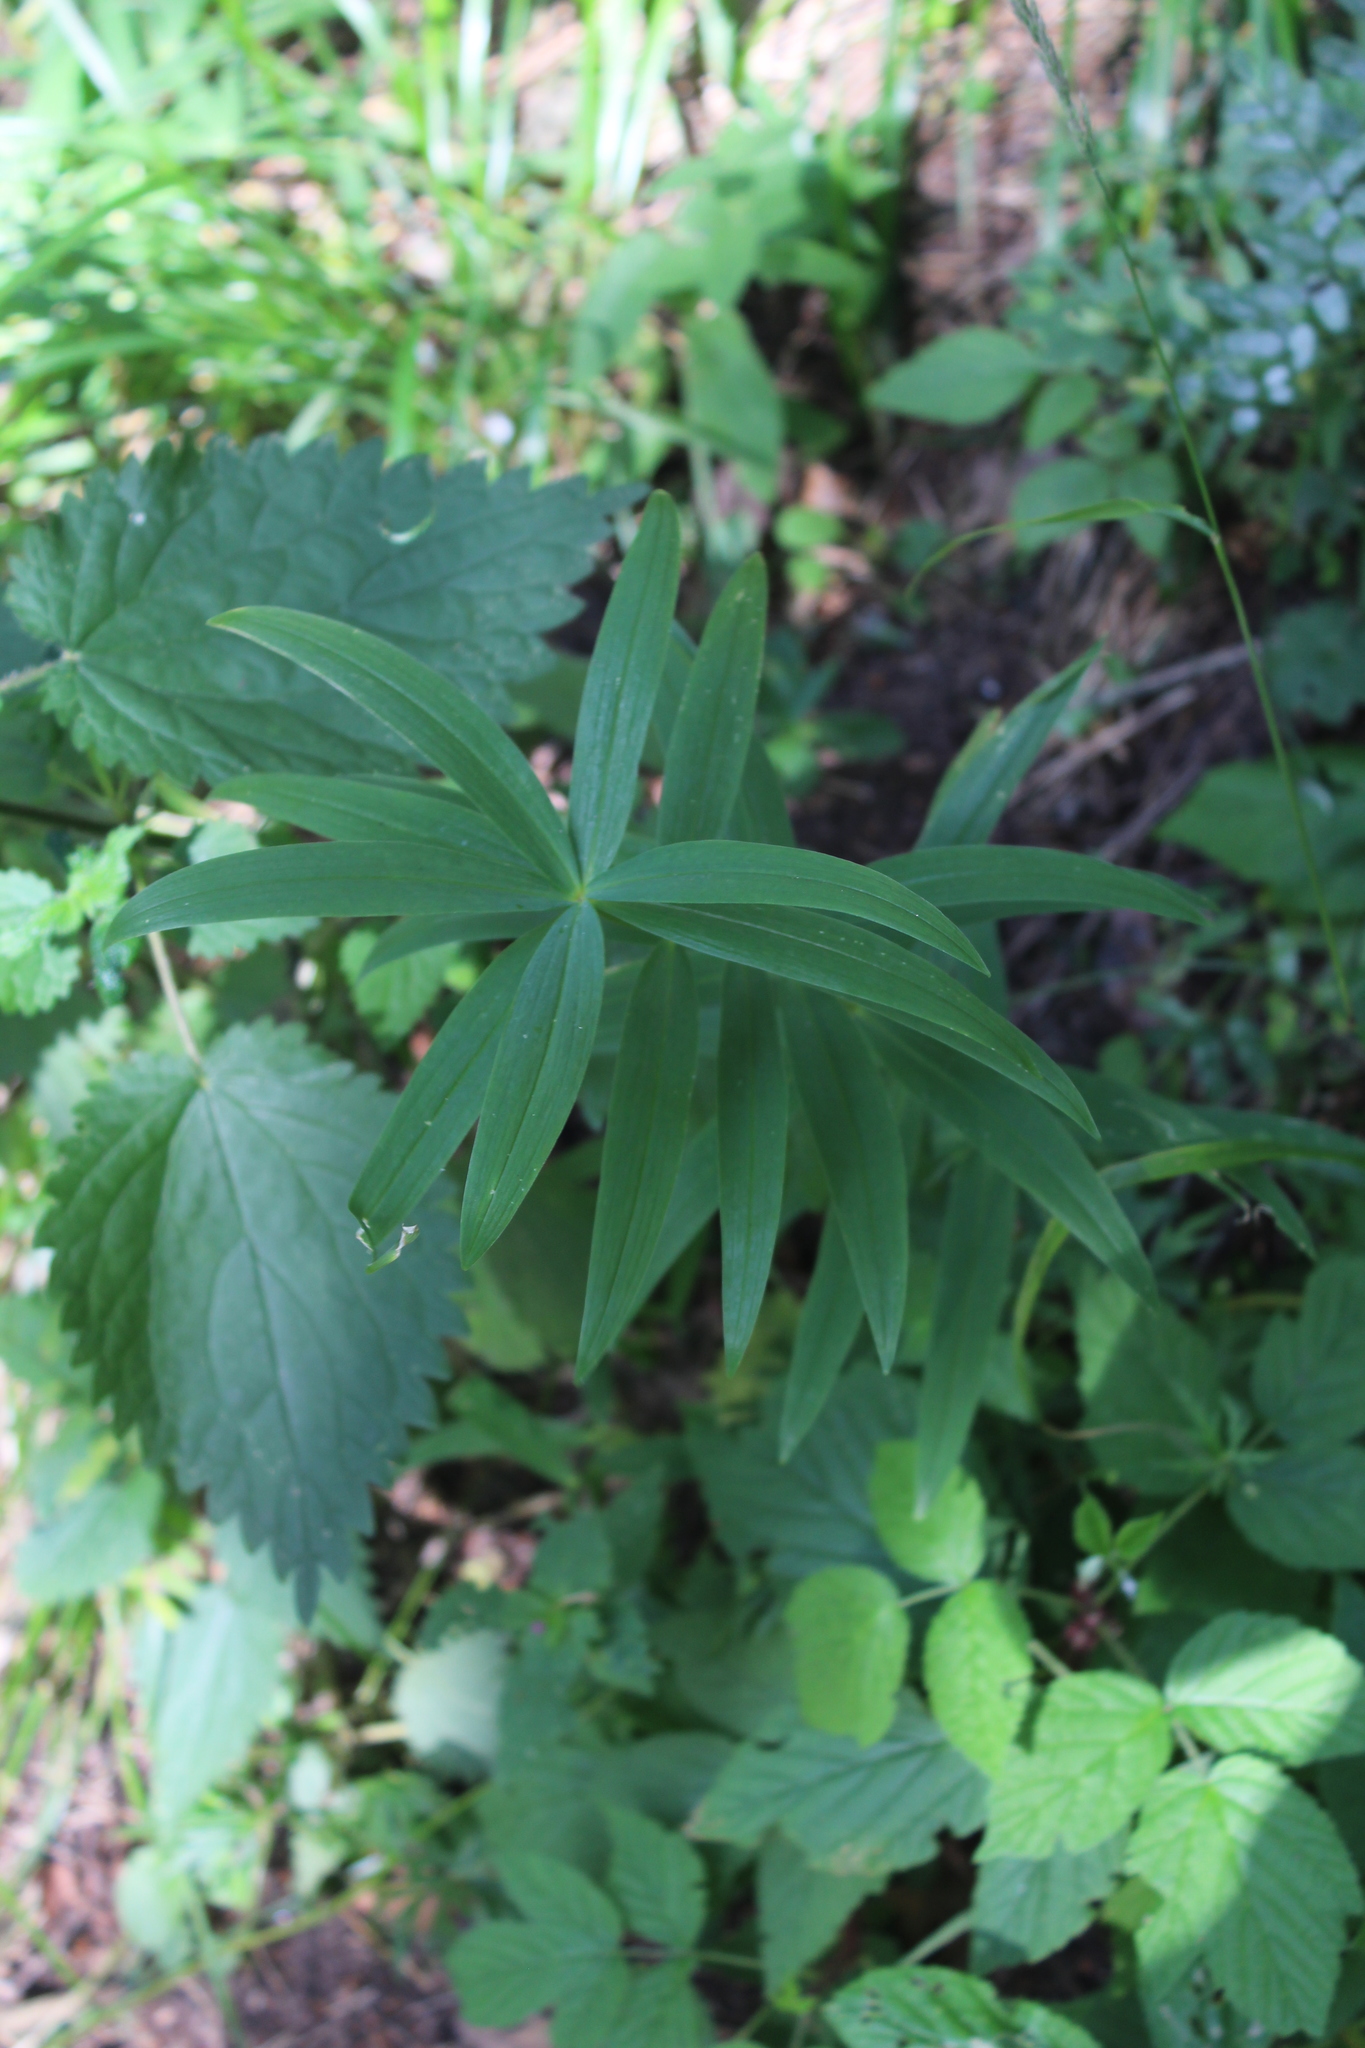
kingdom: Plantae
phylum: Tracheophyta
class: Liliopsida
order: Asparagales
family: Asparagaceae
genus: Polygonatum
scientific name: Polygonatum verticillatum
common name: Whorled solomon's-seal
